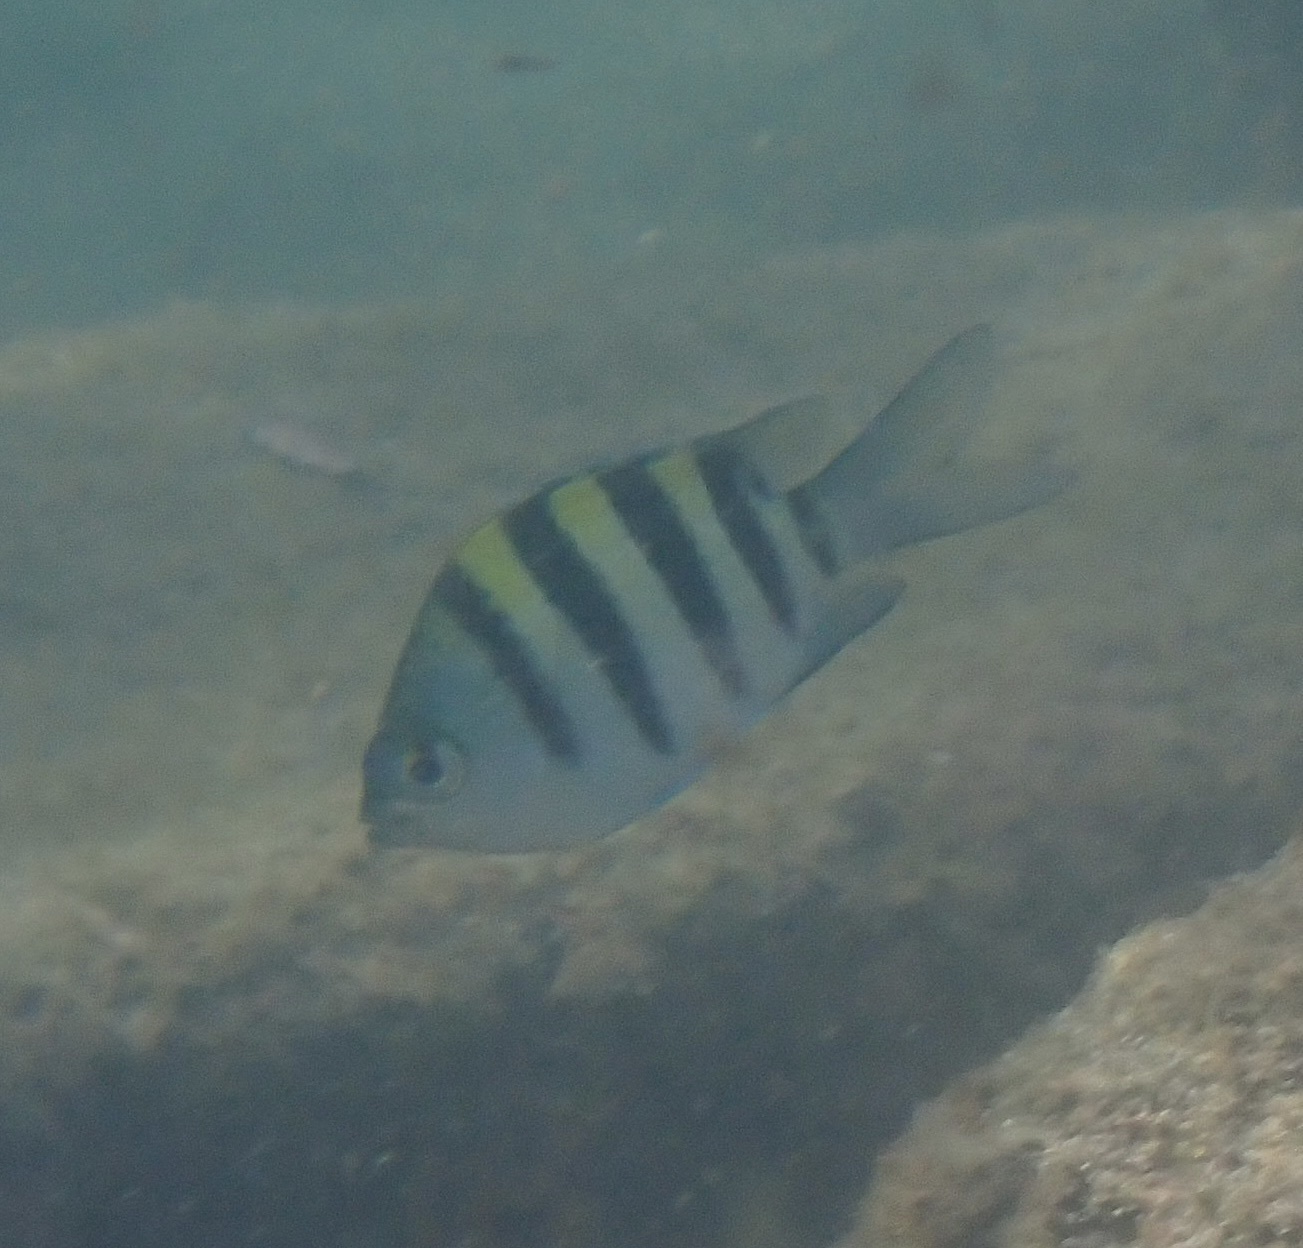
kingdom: Animalia
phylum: Chordata
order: Perciformes
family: Pomacentridae
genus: Abudefduf
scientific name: Abudefduf vaigiensis
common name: Indo-pacific sergeant
